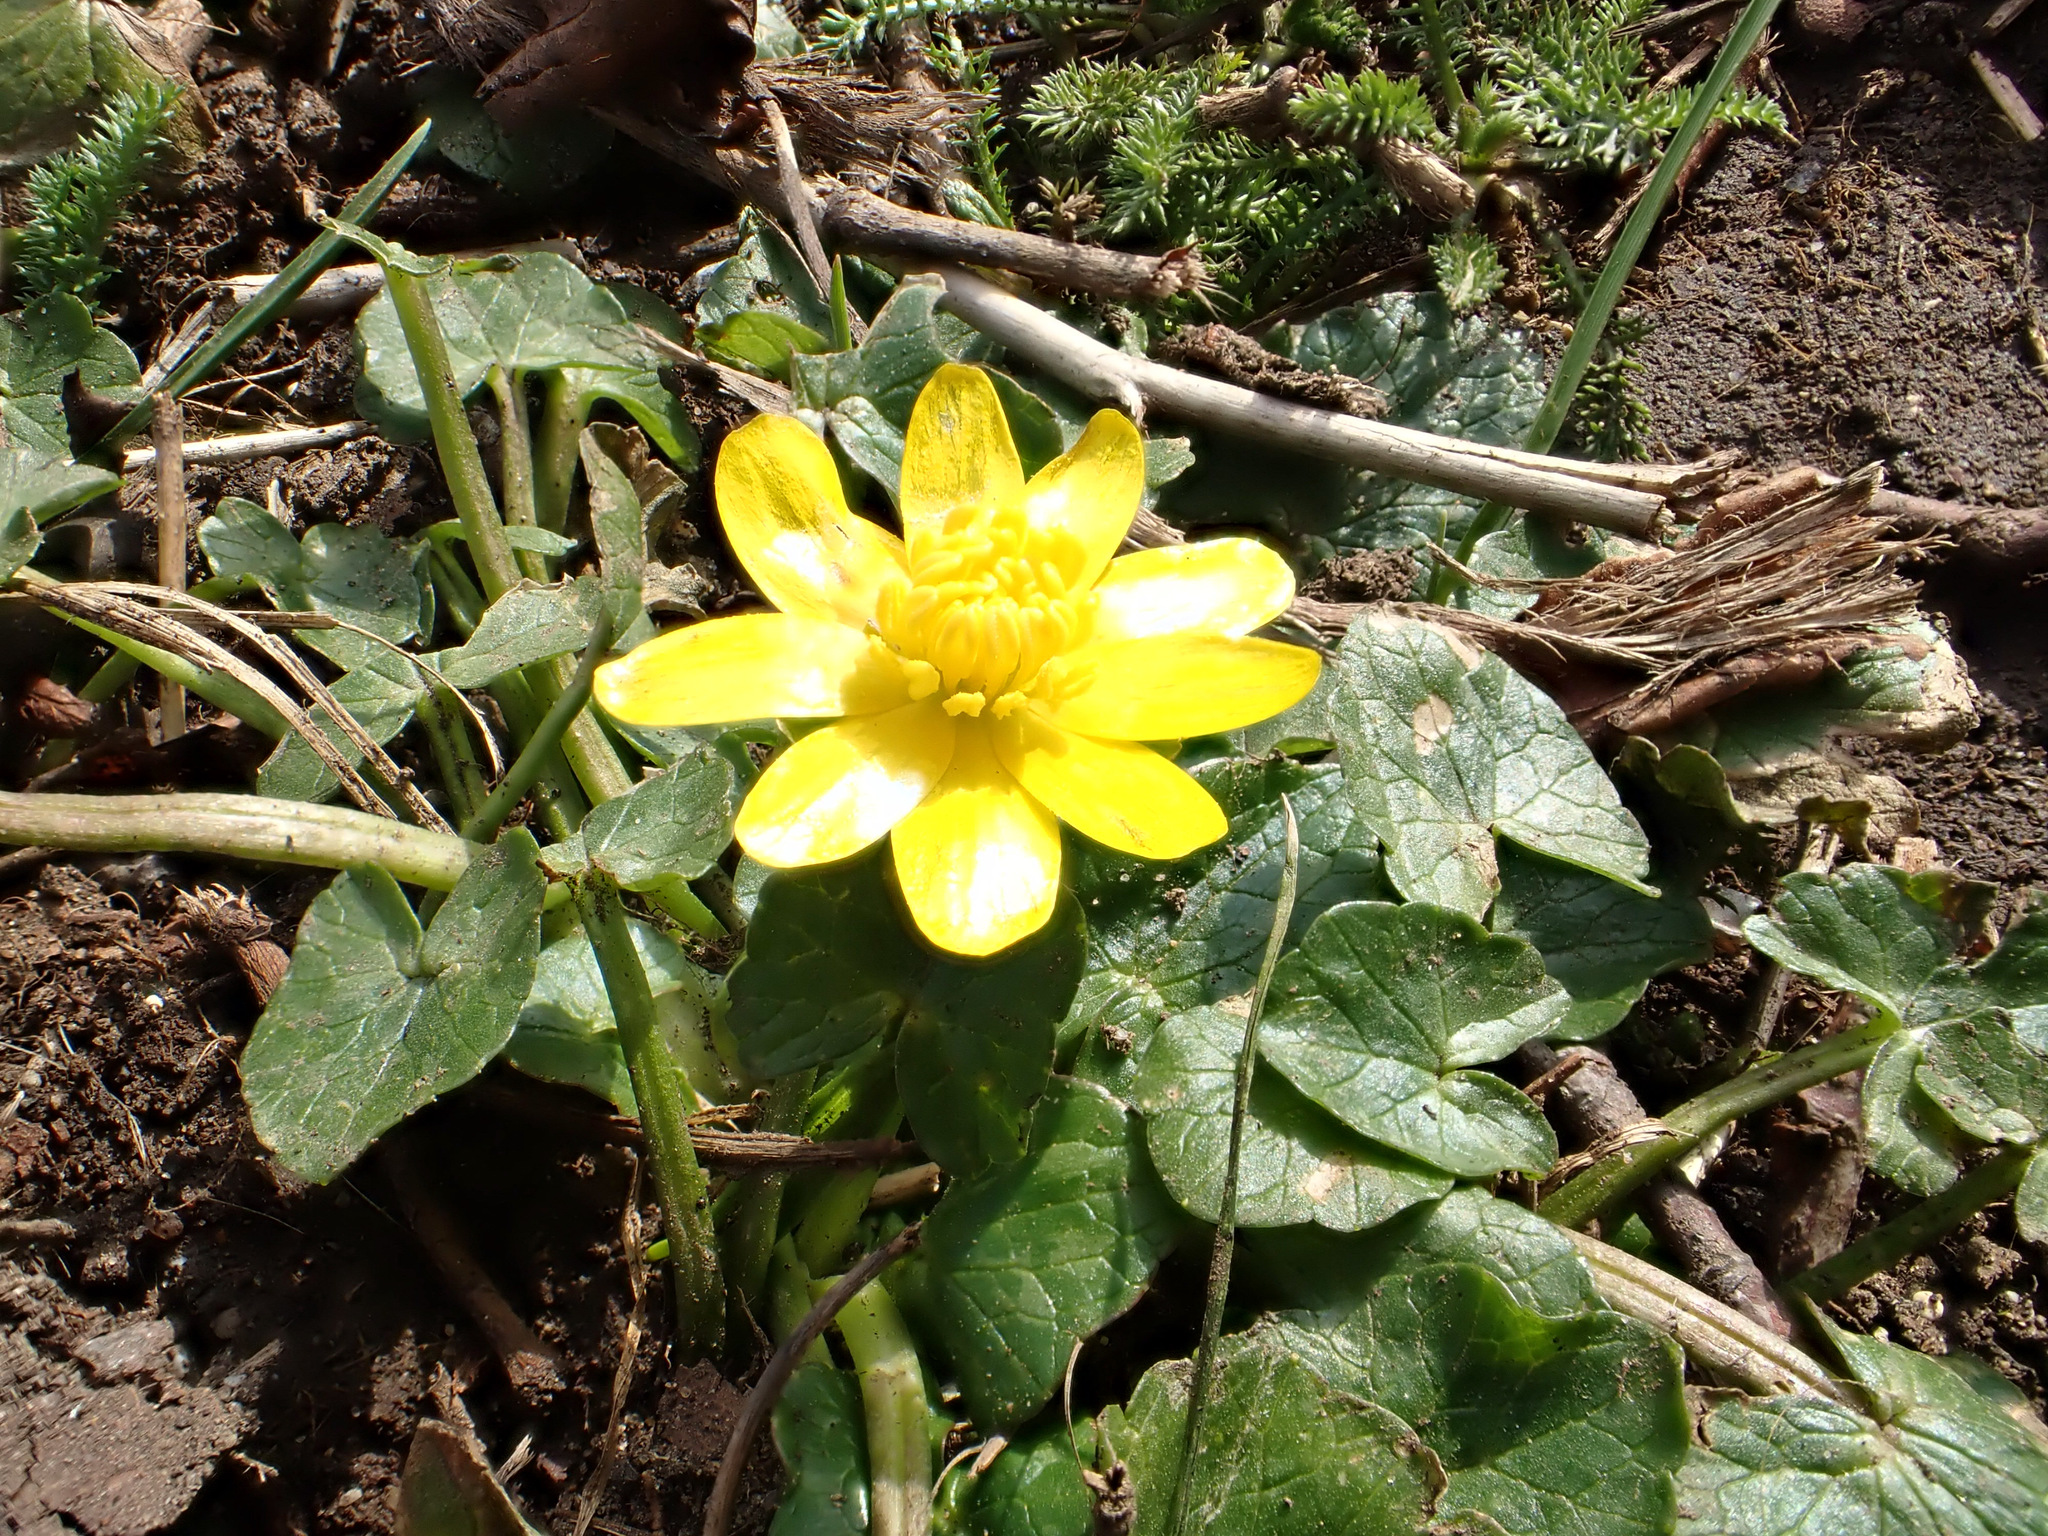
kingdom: Plantae
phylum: Tracheophyta
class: Magnoliopsida
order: Ranunculales
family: Ranunculaceae
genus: Ficaria
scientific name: Ficaria verna
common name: Lesser celandine
